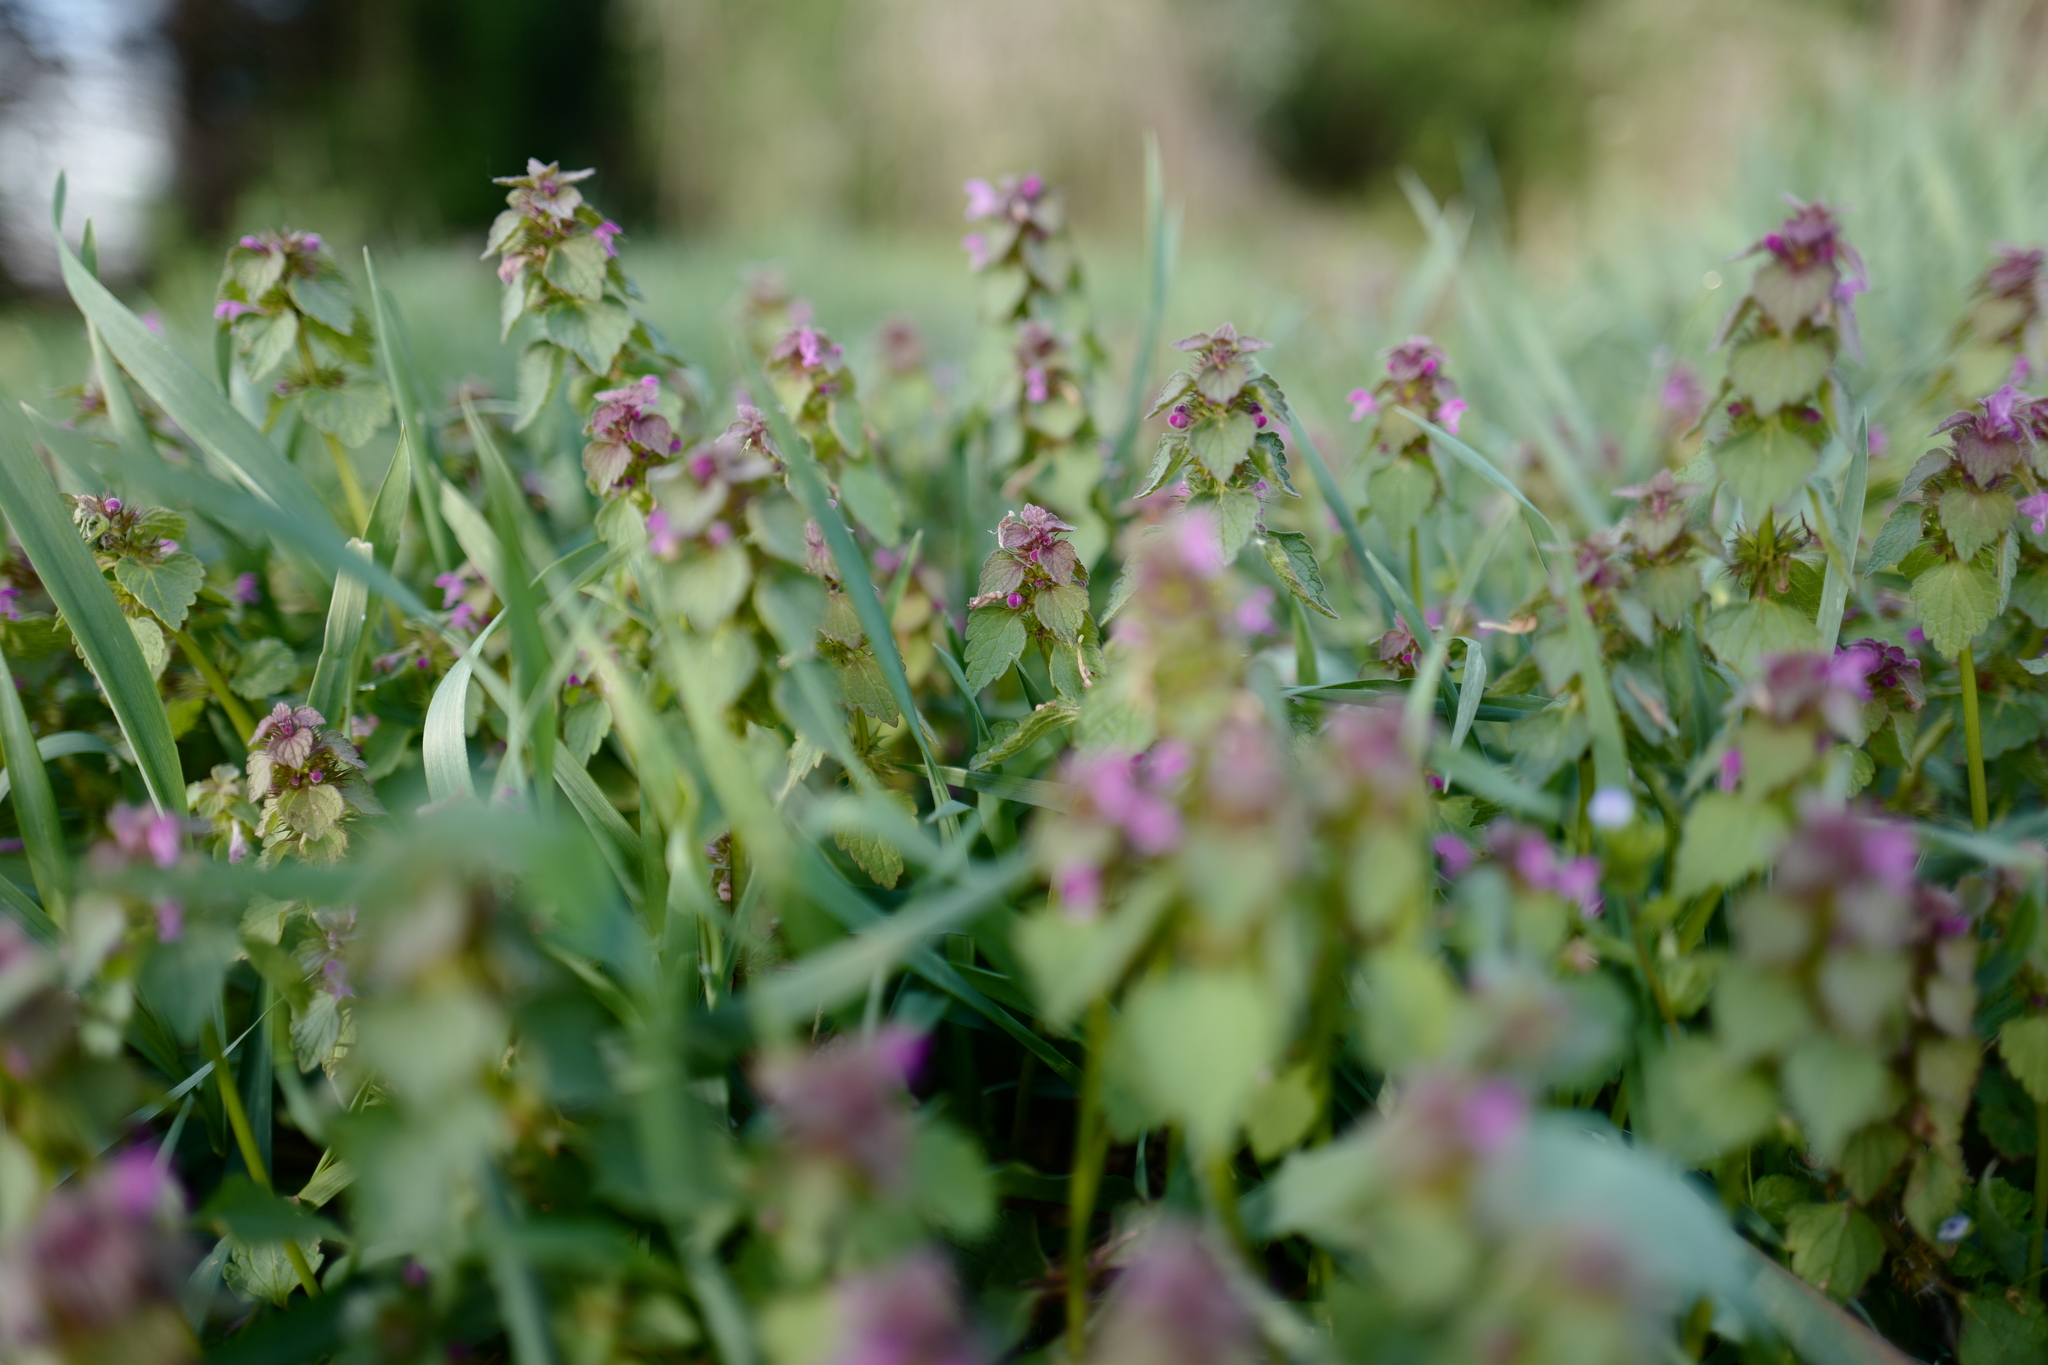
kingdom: Plantae
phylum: Tracheophyta
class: Magnoliopsida
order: Lamiales
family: Lamiaceae
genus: Lamium
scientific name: Lamium purpureum
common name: Red dead-nettle
